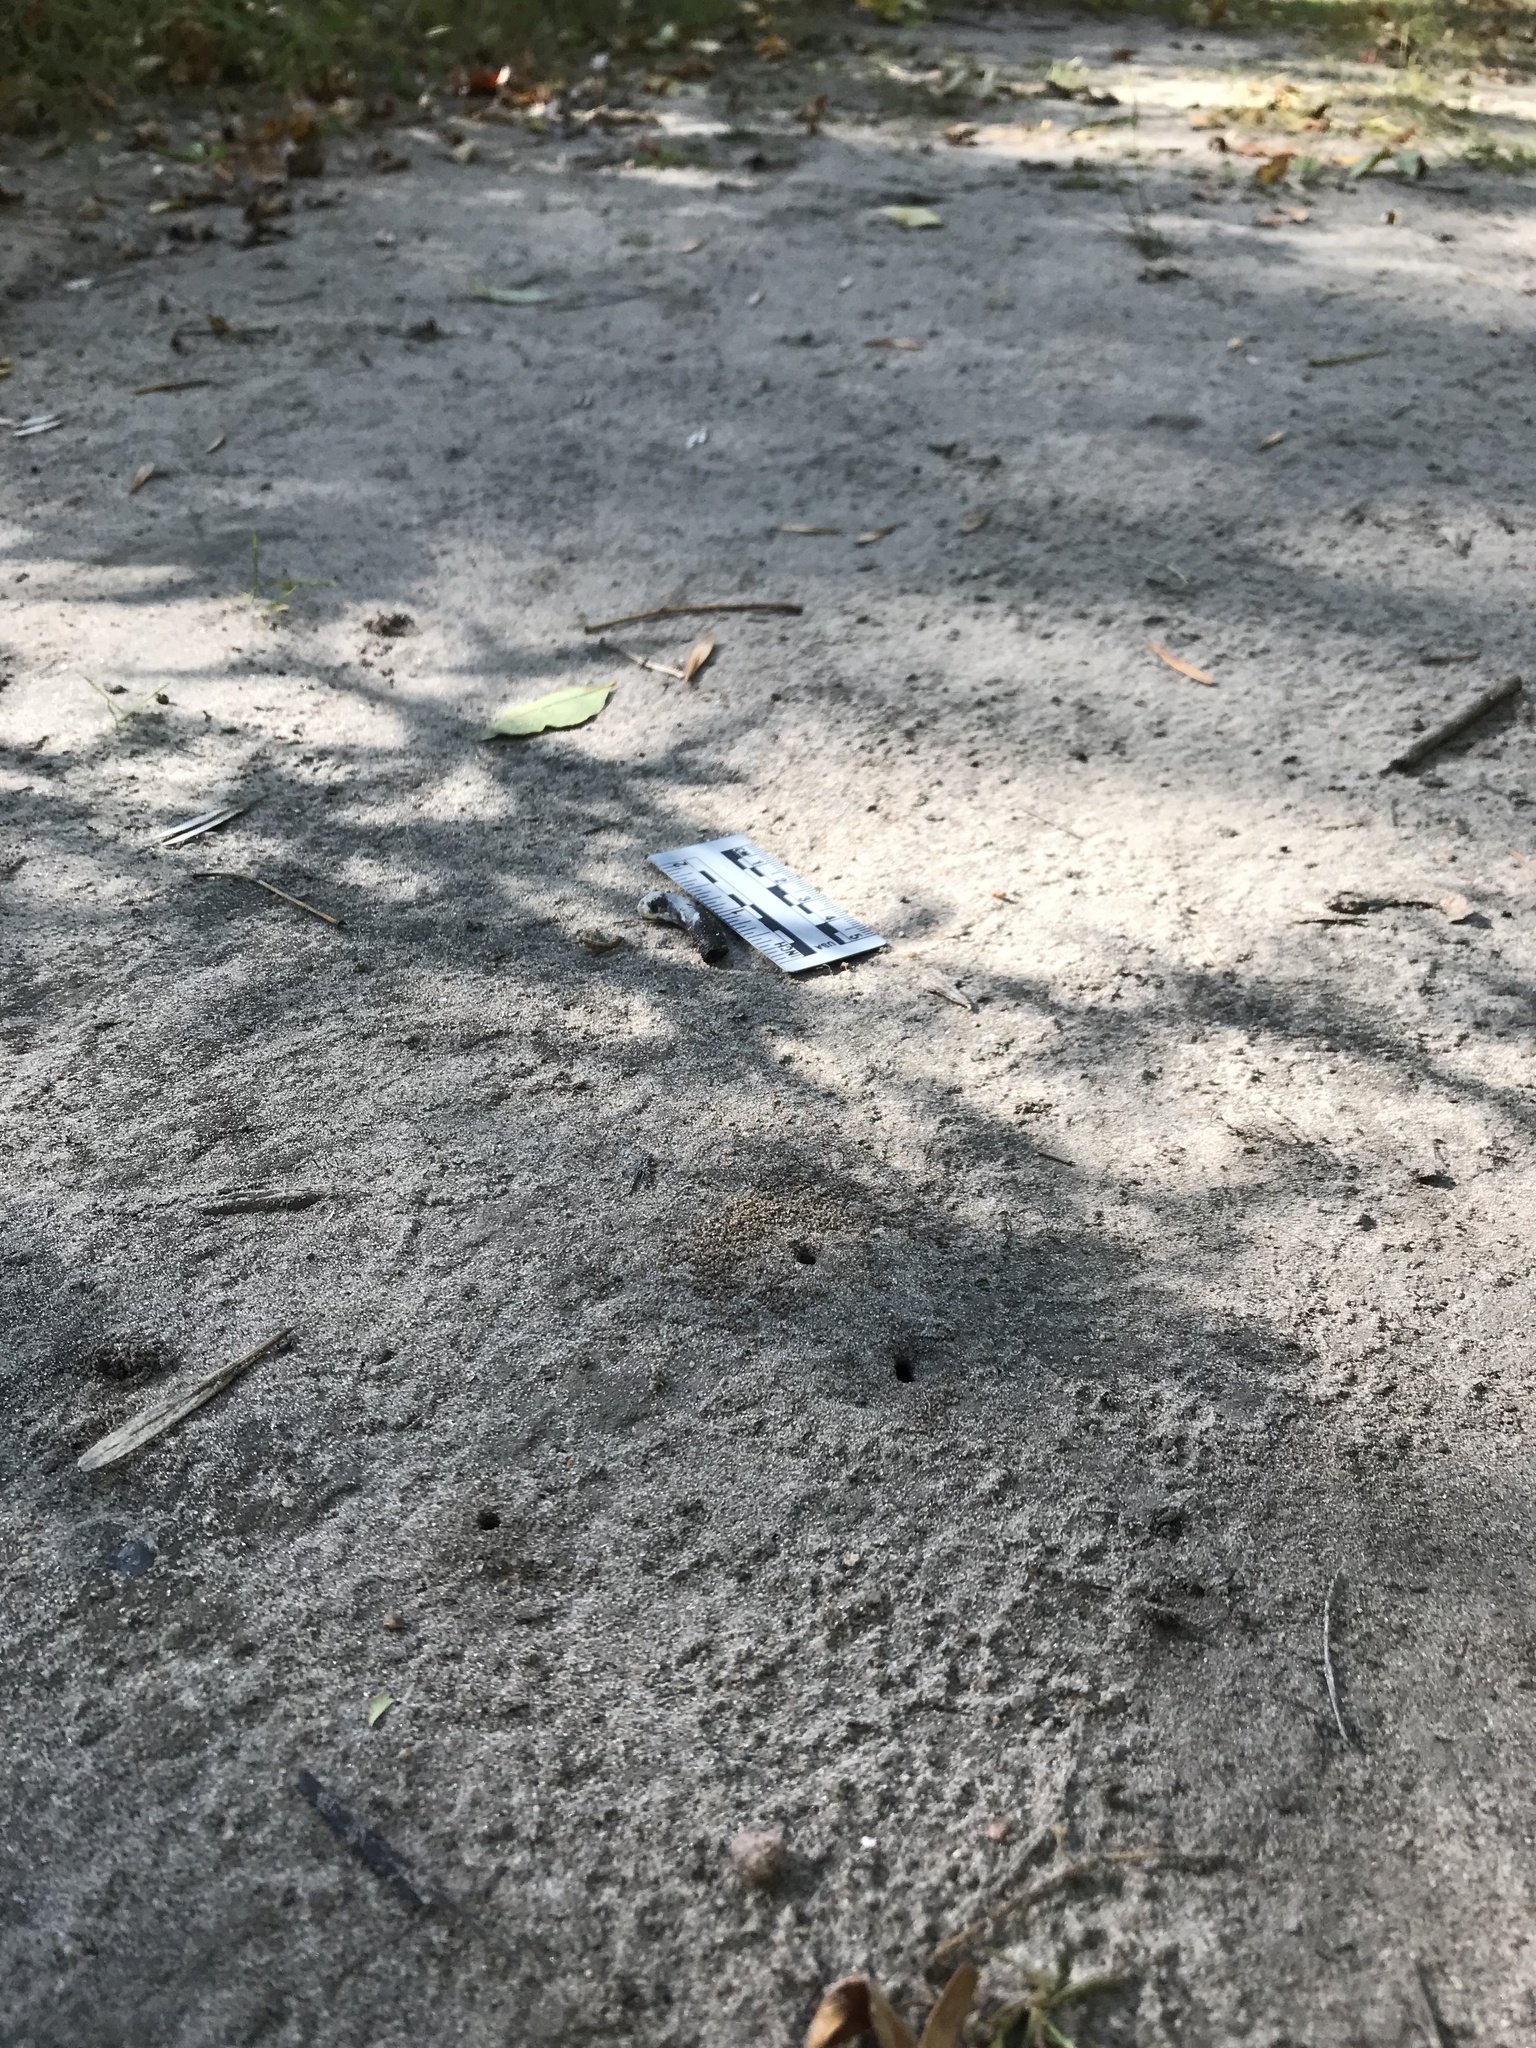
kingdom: Animalia
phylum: Chordata
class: Aves
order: Piciformes
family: Picidae
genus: Colaptes
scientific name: Colaptes auratus
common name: Northern flicker
